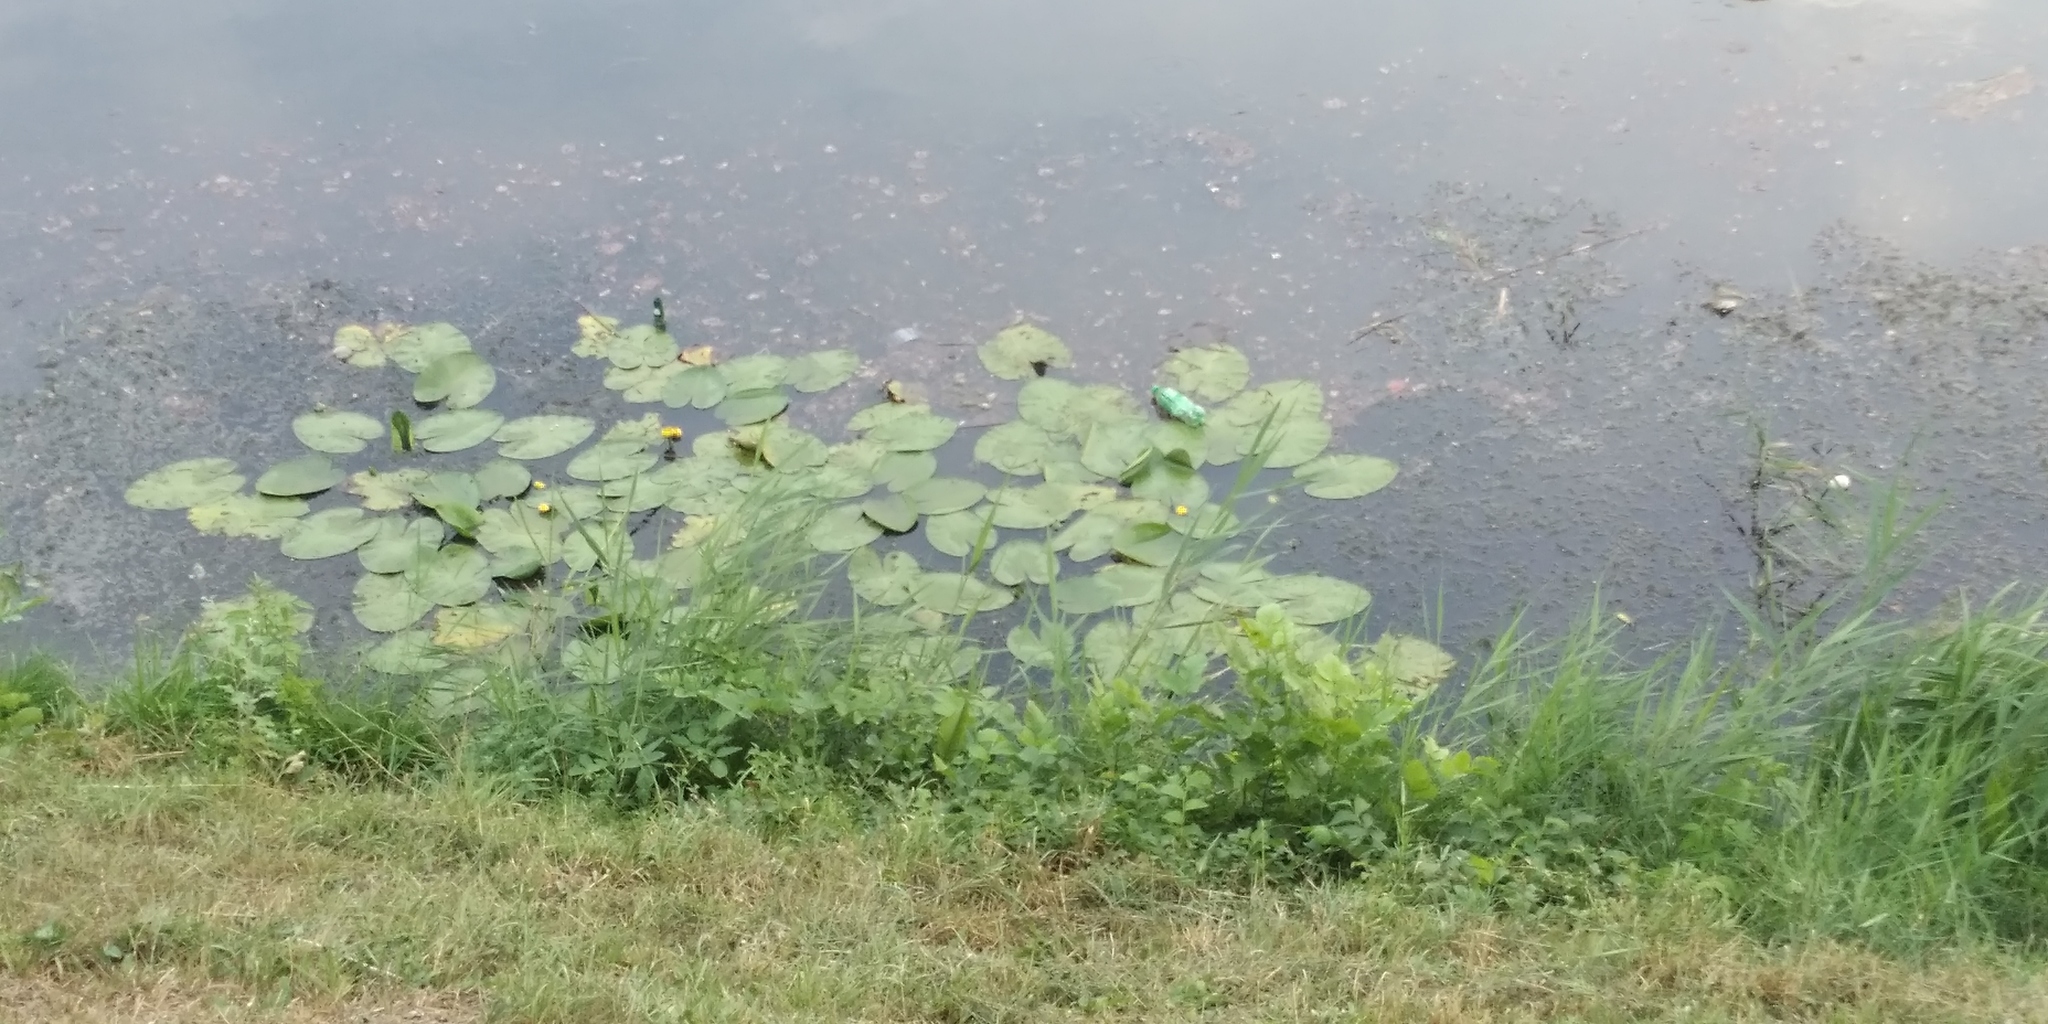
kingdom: Plantae
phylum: Tracheophyta
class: Magnoliopsida
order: Nymphaeales
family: Nymphaeaceae
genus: Nuphar
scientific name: Nuphar lutea
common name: Yellow water-lily
